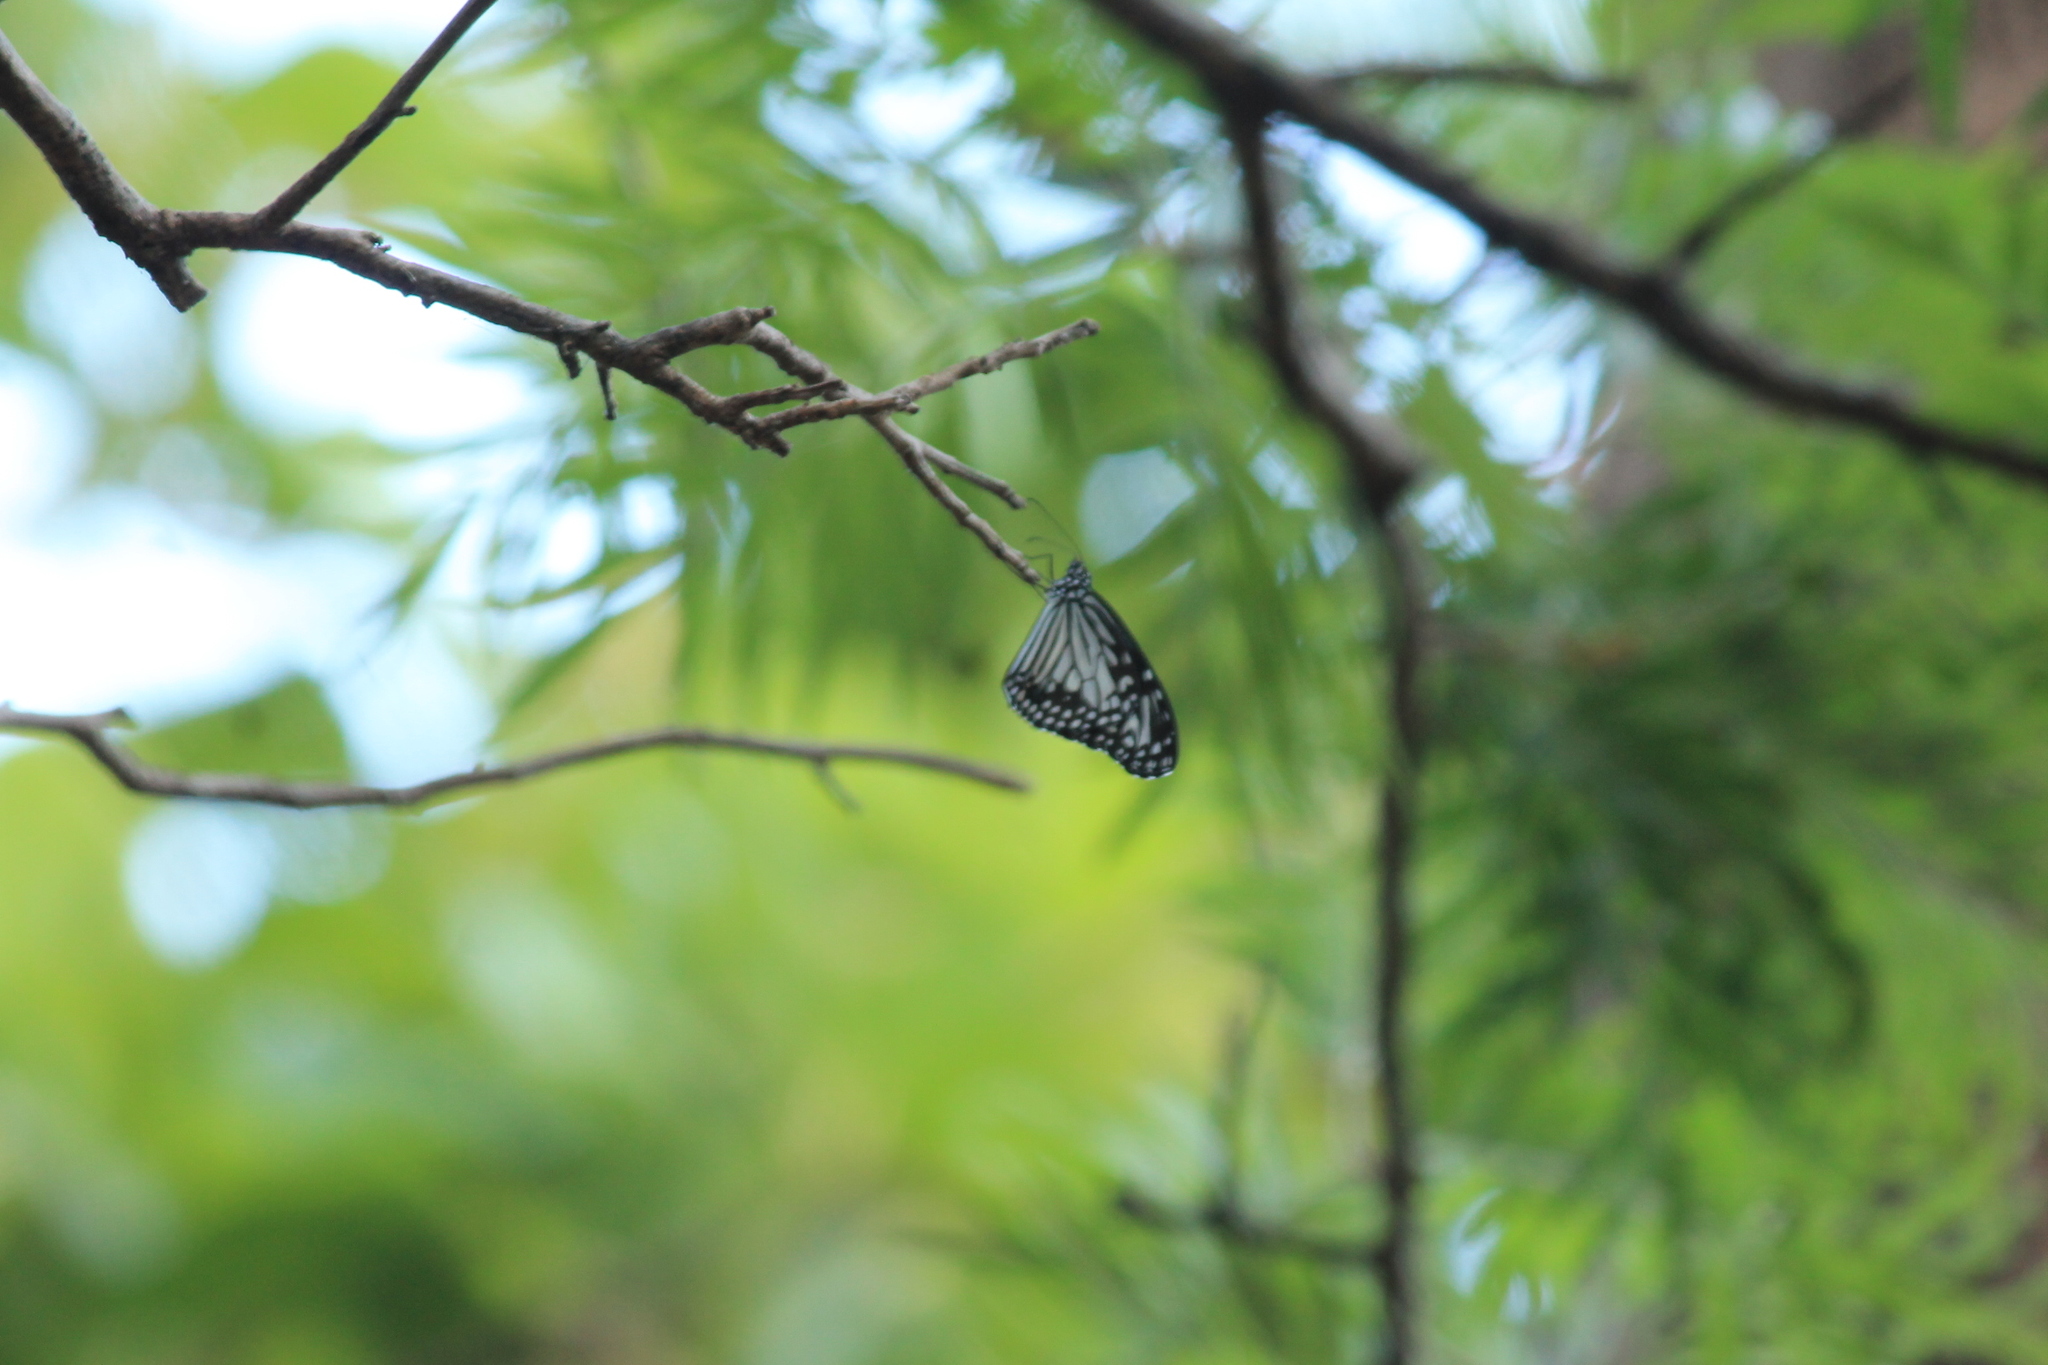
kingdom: Animalia
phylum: Arthropoda
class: Insecta
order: Lepidoptera
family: Nymphalidae
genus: Parantica
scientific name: Parantica aglea
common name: Glassy tiger
